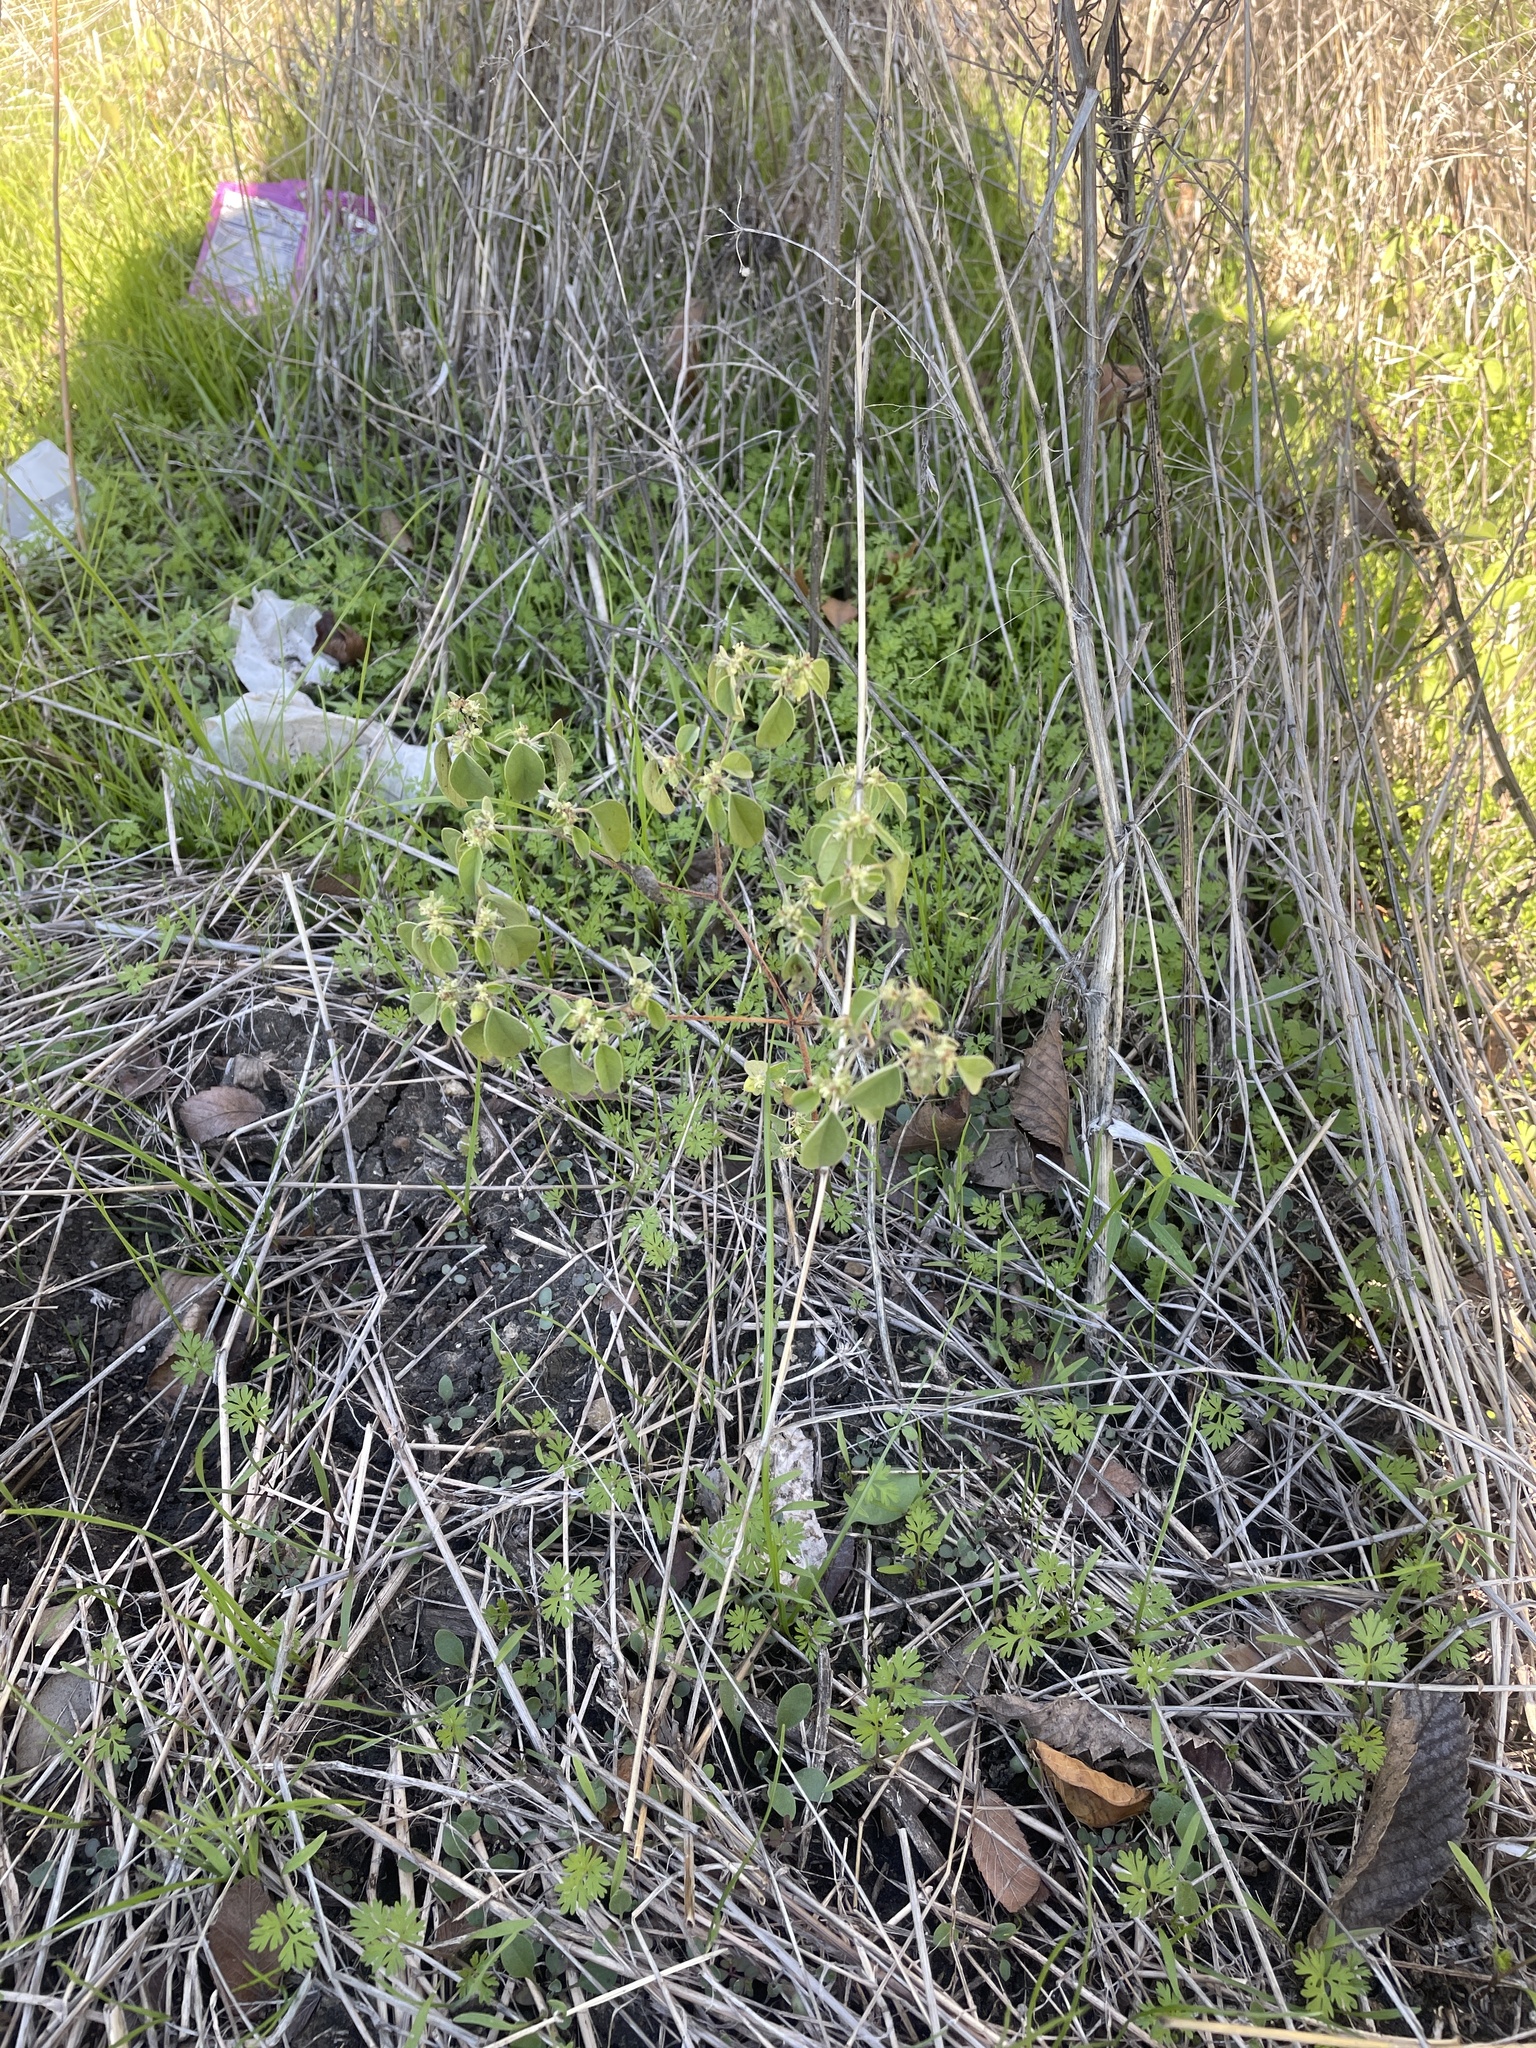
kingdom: Plantae
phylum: Tracheophyta
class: Magnoliopsida
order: Malpighiales
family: Euphorbiaceae
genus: Croton
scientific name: Croton monanthogynus
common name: One-seed croton
